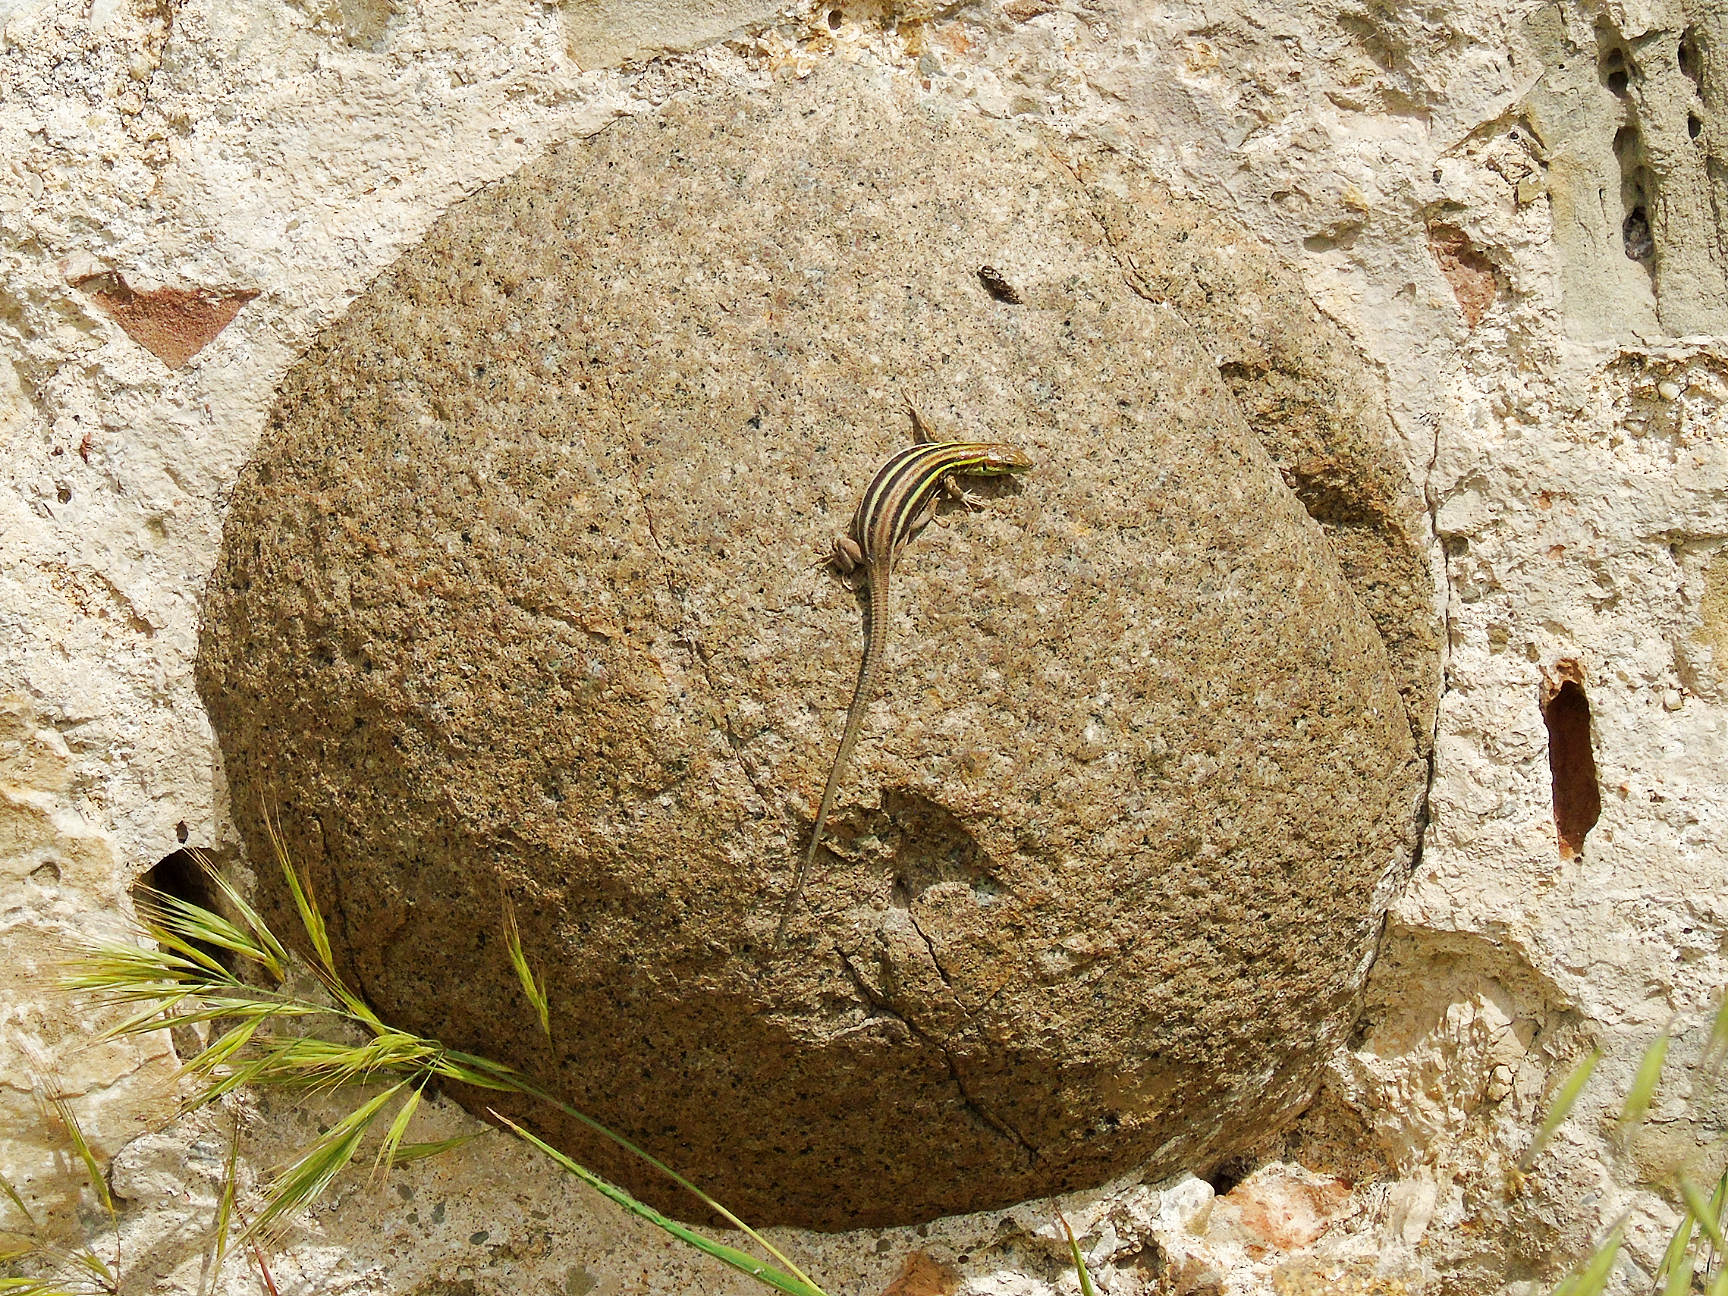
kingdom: Animalia
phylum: Chordata
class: Squamata
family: Lacertidae
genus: Podarcis
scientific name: Podarcis peloponnesiacus
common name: Peloponnese wall lizard
